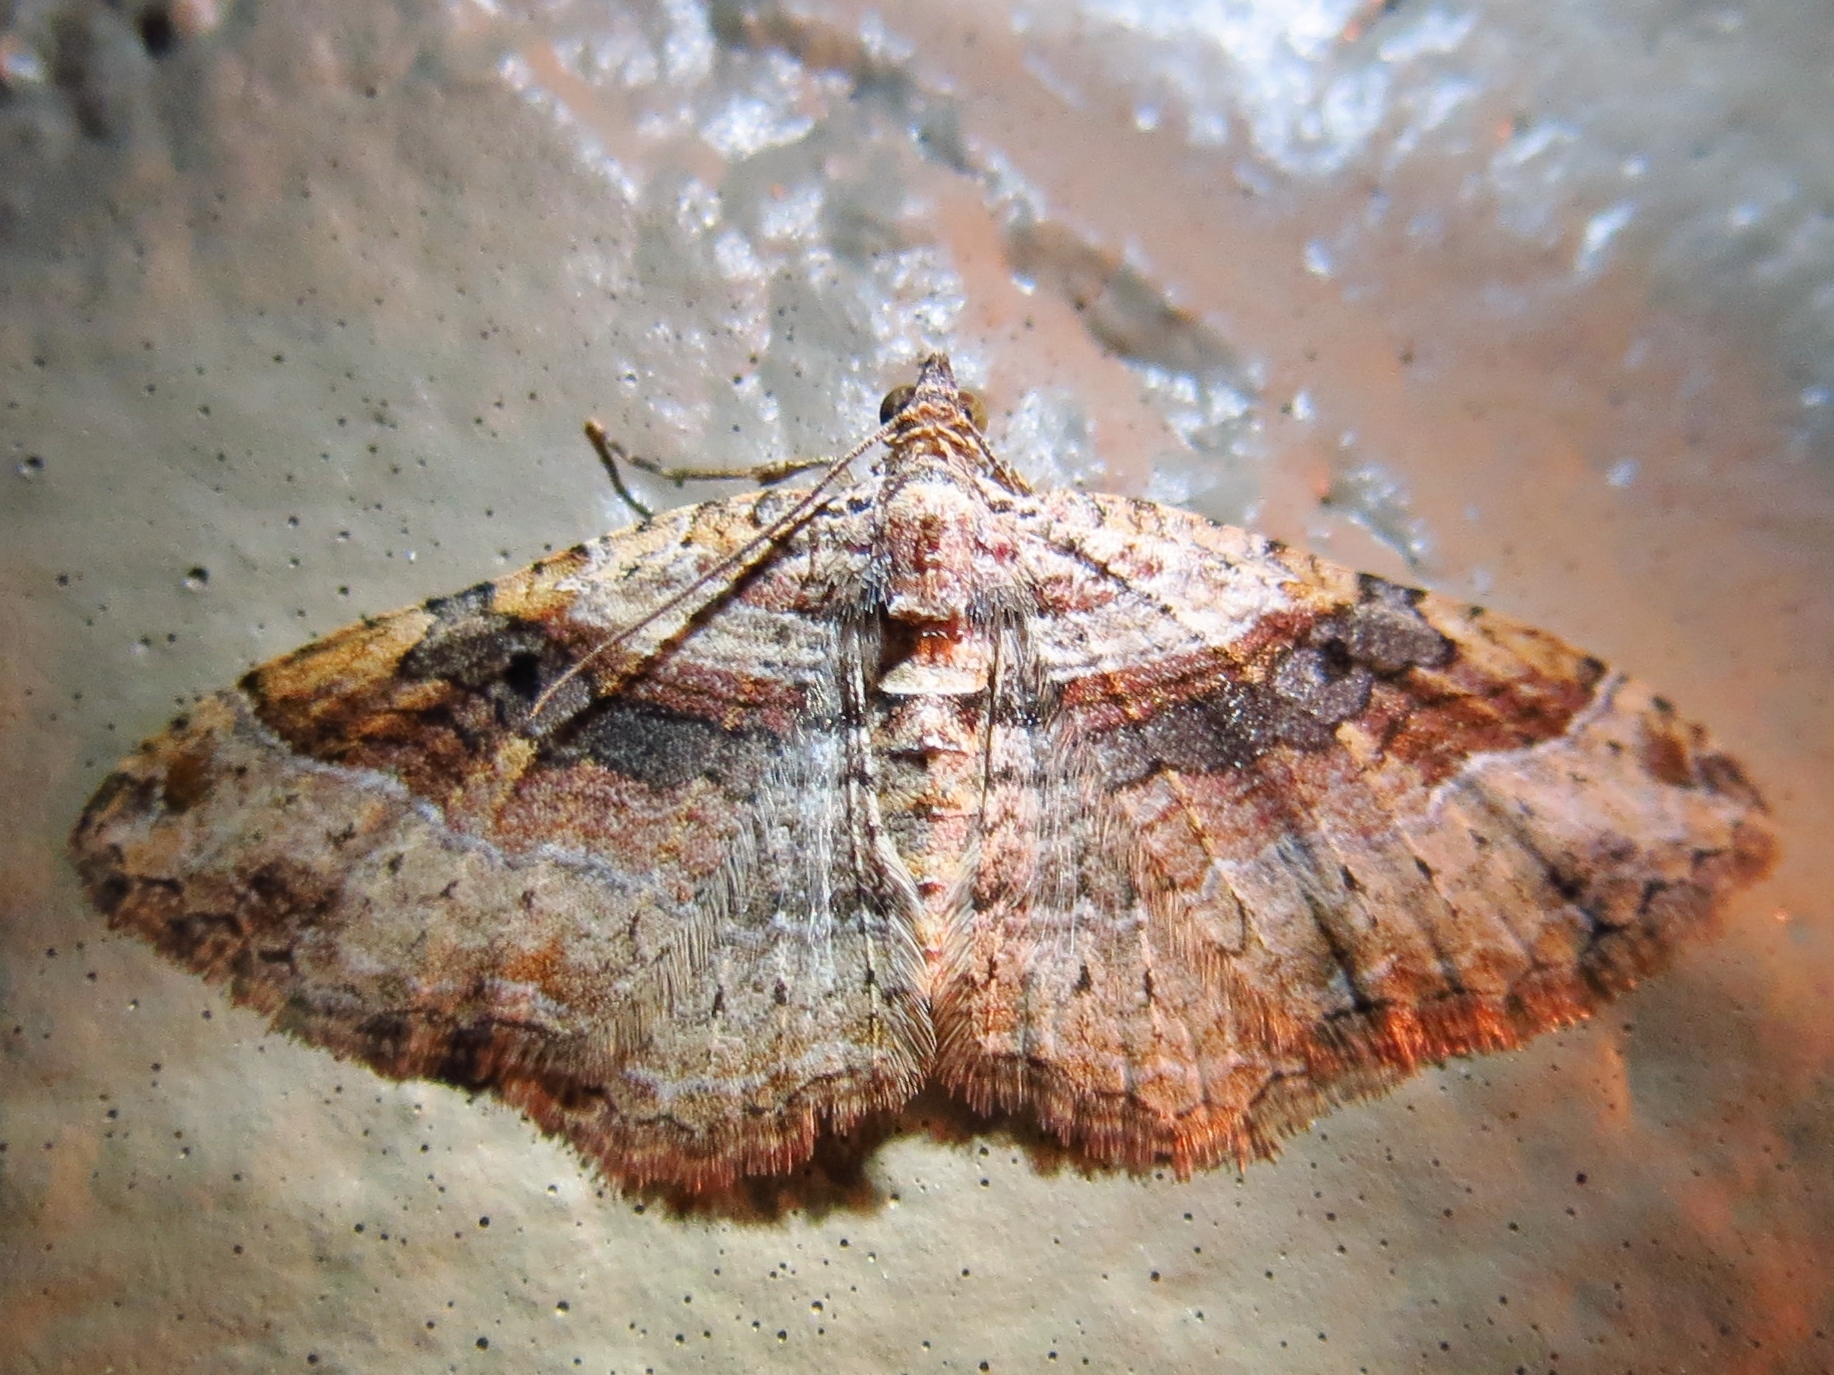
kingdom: Animalia
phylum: Arthropoda
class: Insecta
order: Lepidoptera
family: Geometridae
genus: Costaconvexa
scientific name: Costaconvexa centrostrigaria
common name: Bent-line carpet
